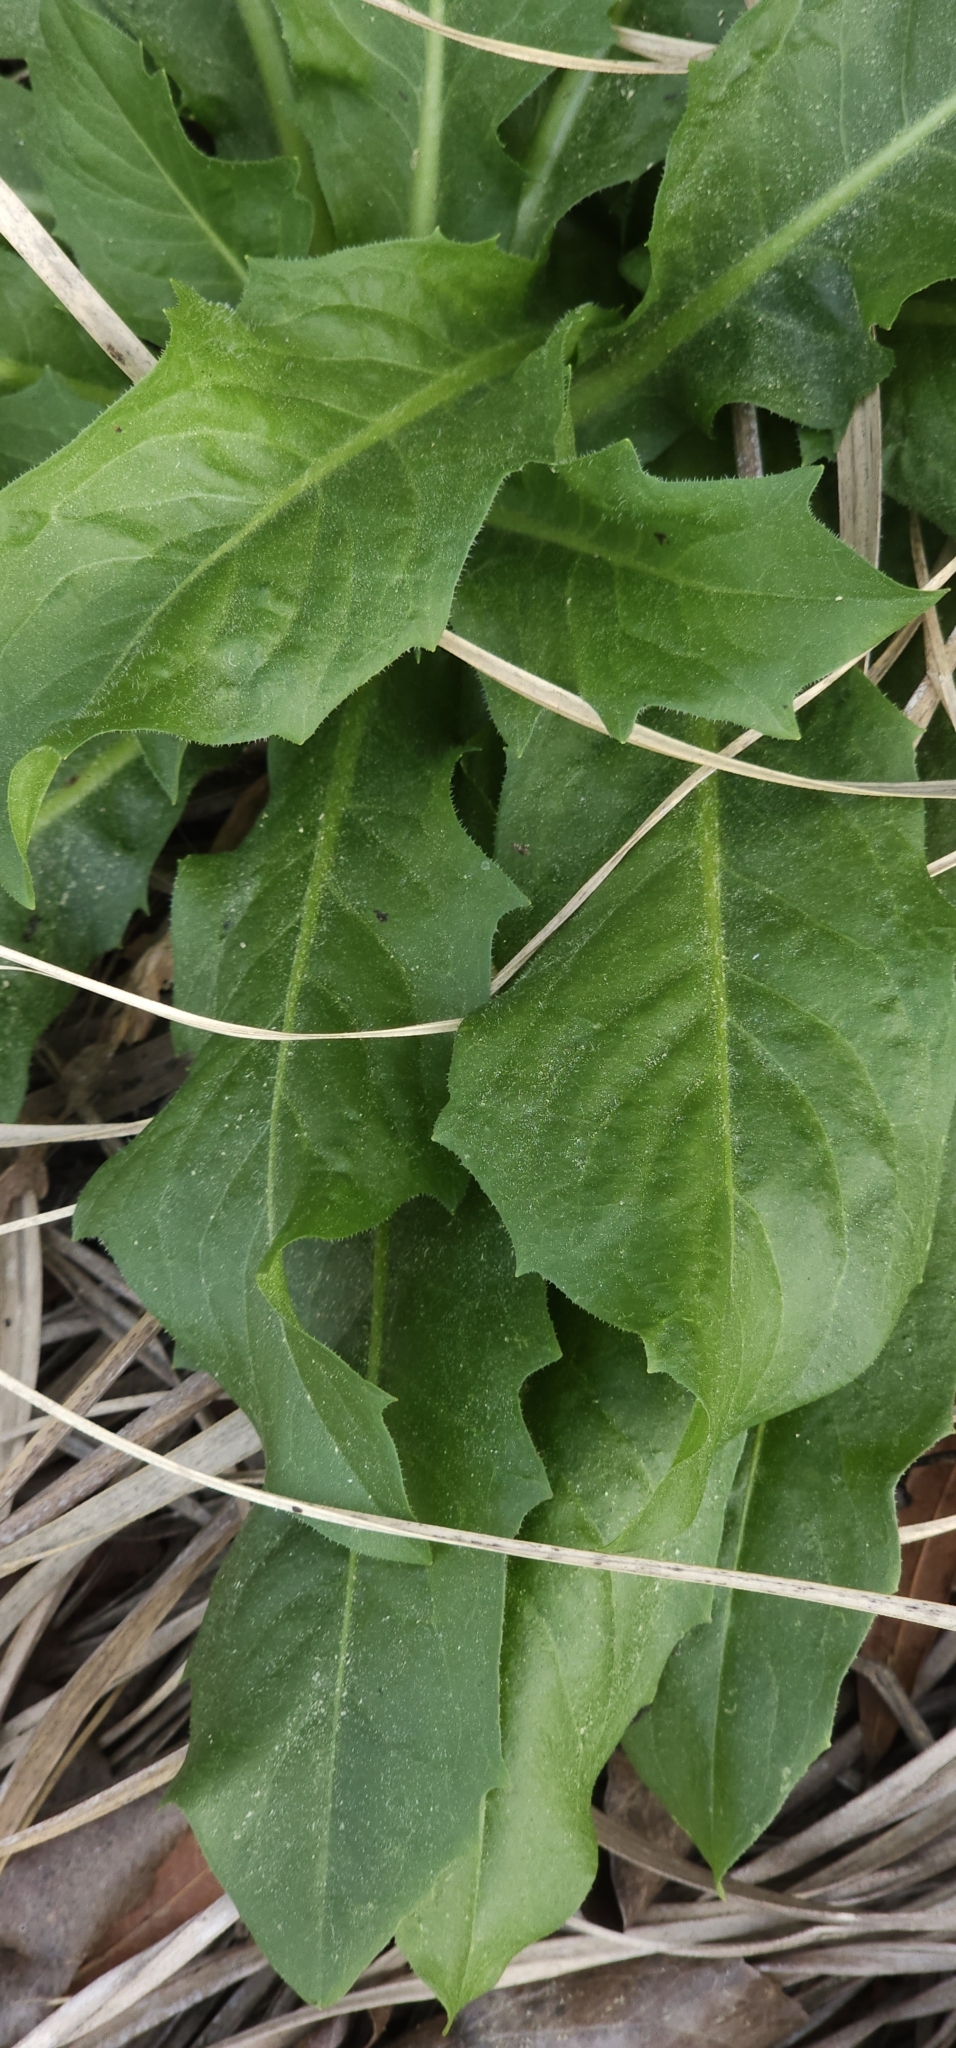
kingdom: Plantae
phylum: Tracheophyta
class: Magnoliopsida
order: Asterales
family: Asteraceae
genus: Hypochaeris
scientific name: Hypochaeris chillensis
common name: Brazilian cat's ear
